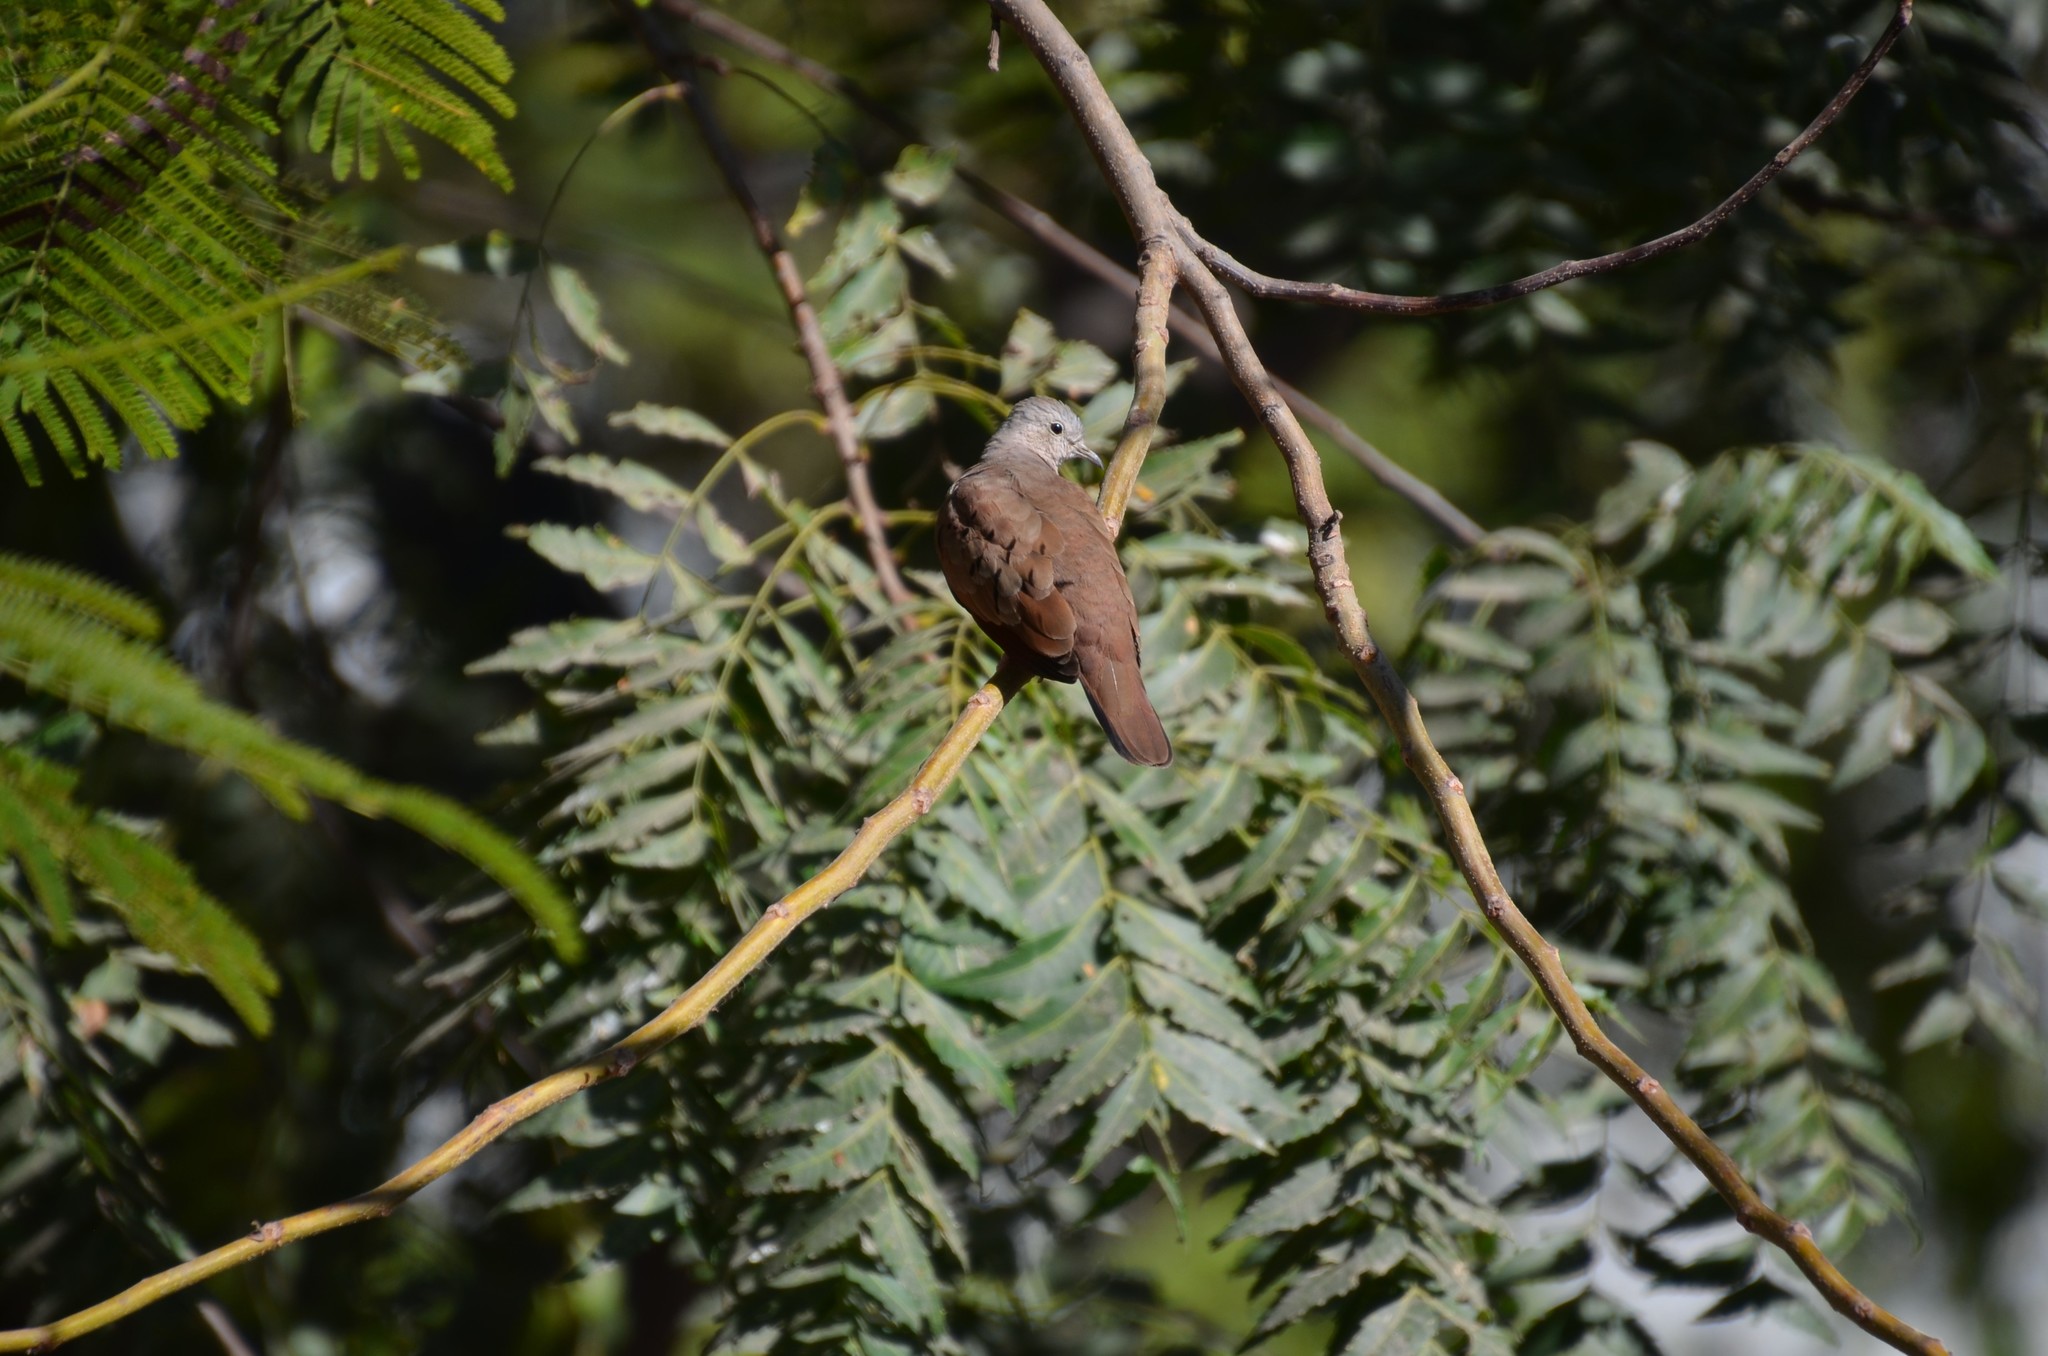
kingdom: Animalia
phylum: Chordata
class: Aves
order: Columbiformes
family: Columbidae
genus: Columbina
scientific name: Columbina talpacoti
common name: Ruddy ground dove
